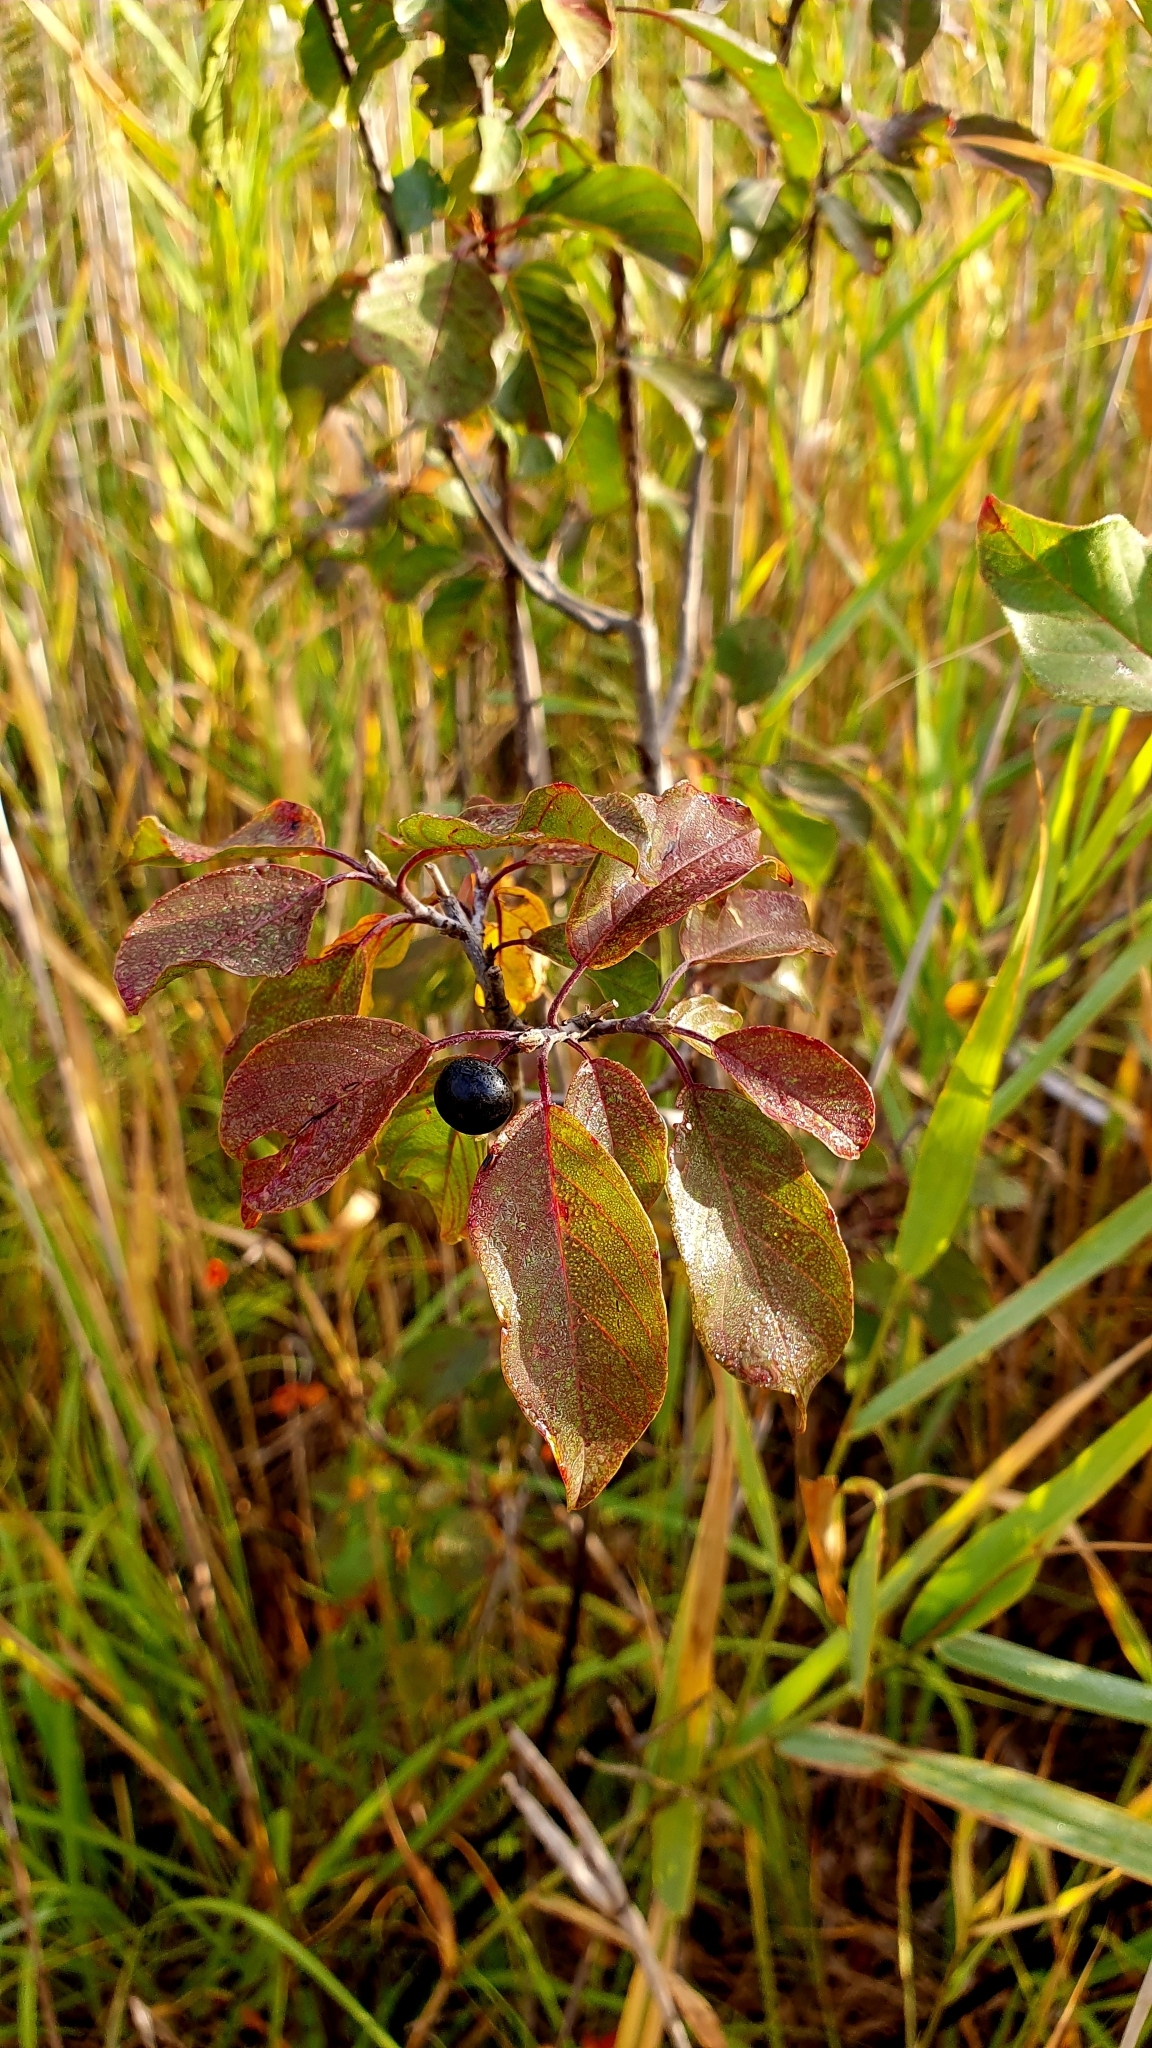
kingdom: Plantae
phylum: Tracheophyta
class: Magnoliopsida
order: Rosales
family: Rhamnaceae
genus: Frangula
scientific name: Frangula alnus
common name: Alder buckthorn
